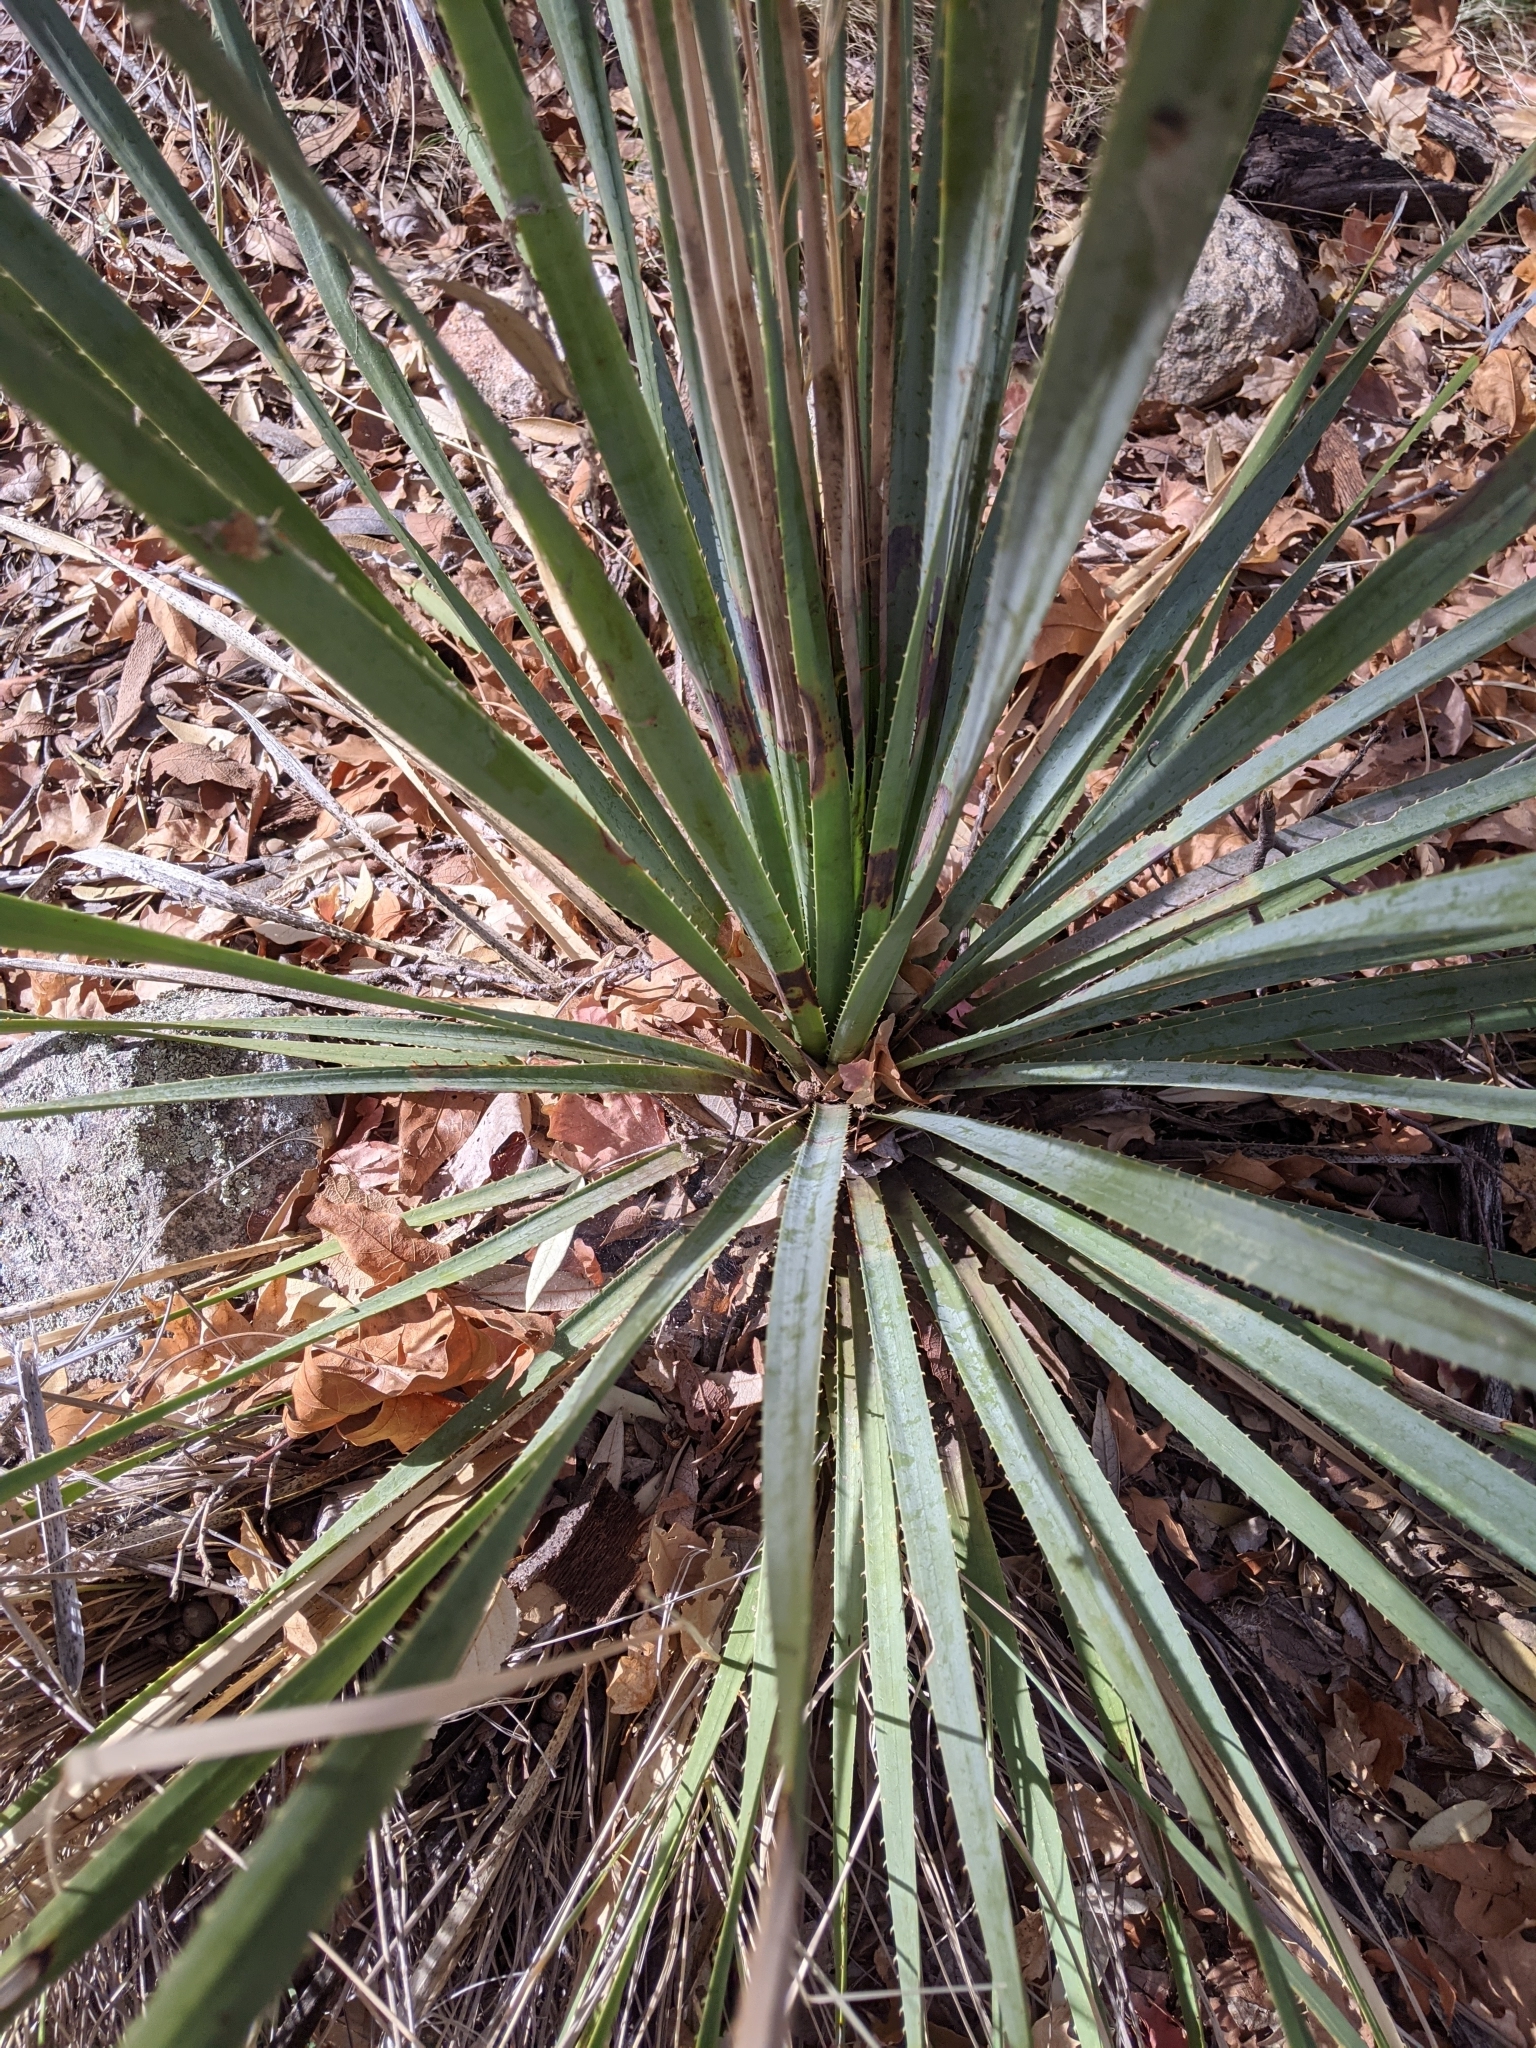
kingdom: Plantae
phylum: Tracheophyta
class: Liliopsida
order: Asparagales
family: Asparagaceae
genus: Dasylirion
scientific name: Dasylirion wheeleri
